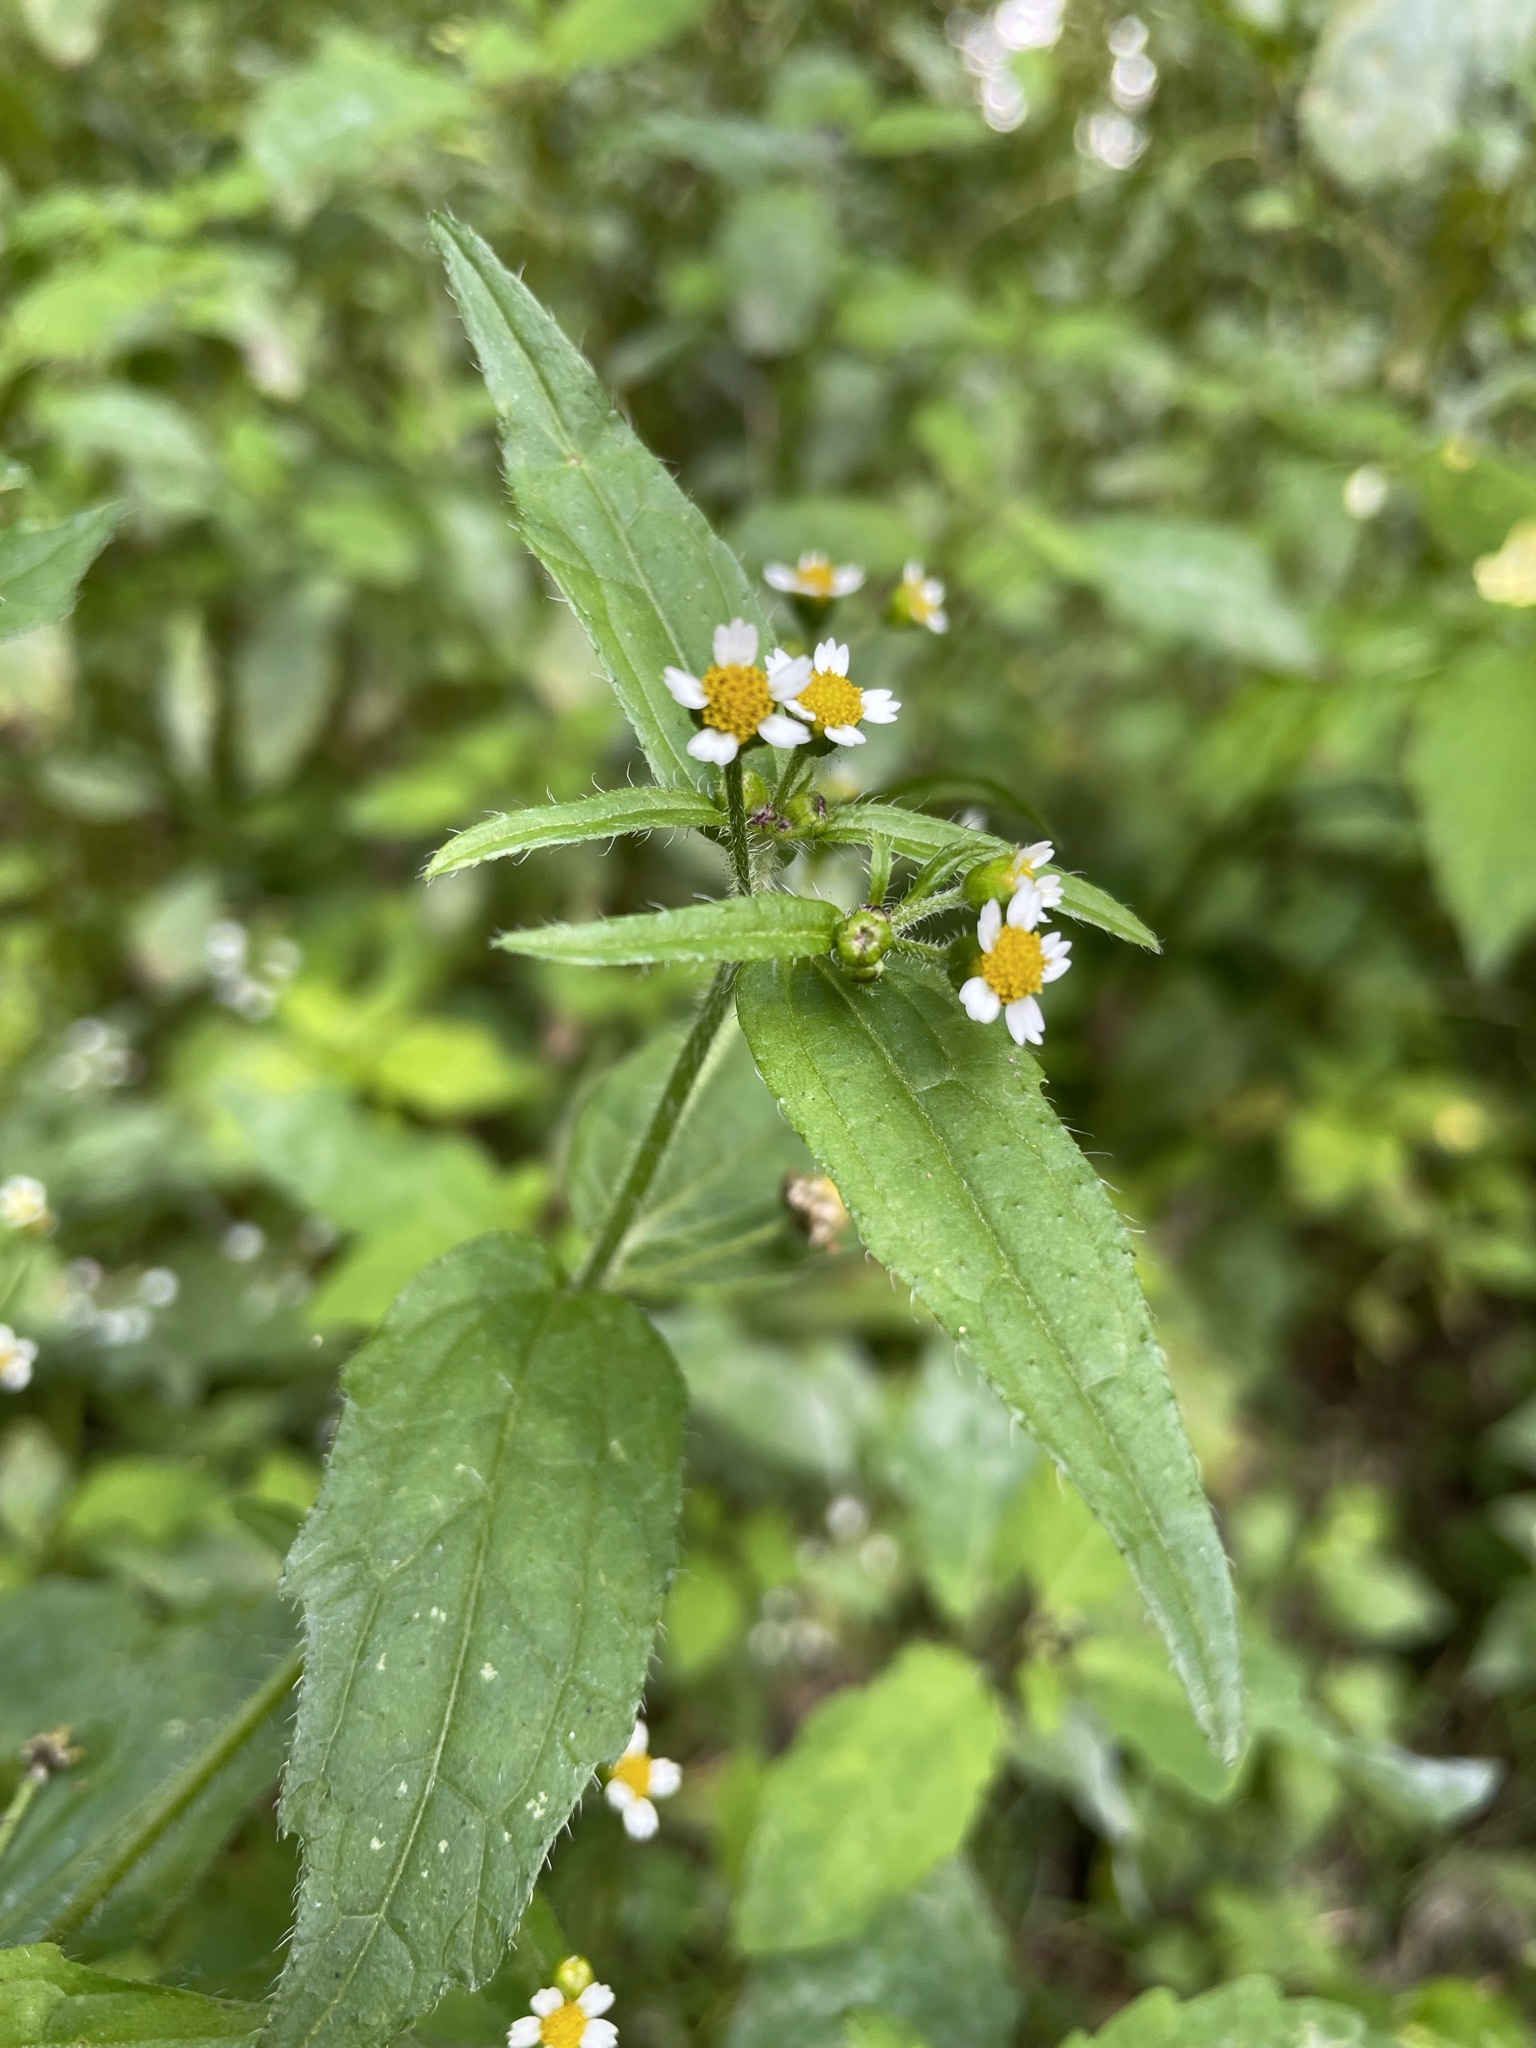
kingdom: Plantae
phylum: Tracheophyta
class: Magnoliopsida
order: Asterales
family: Asteraceae
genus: Galinsoga
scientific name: Galinsoga quadriradiata
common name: Shaggy soldier
